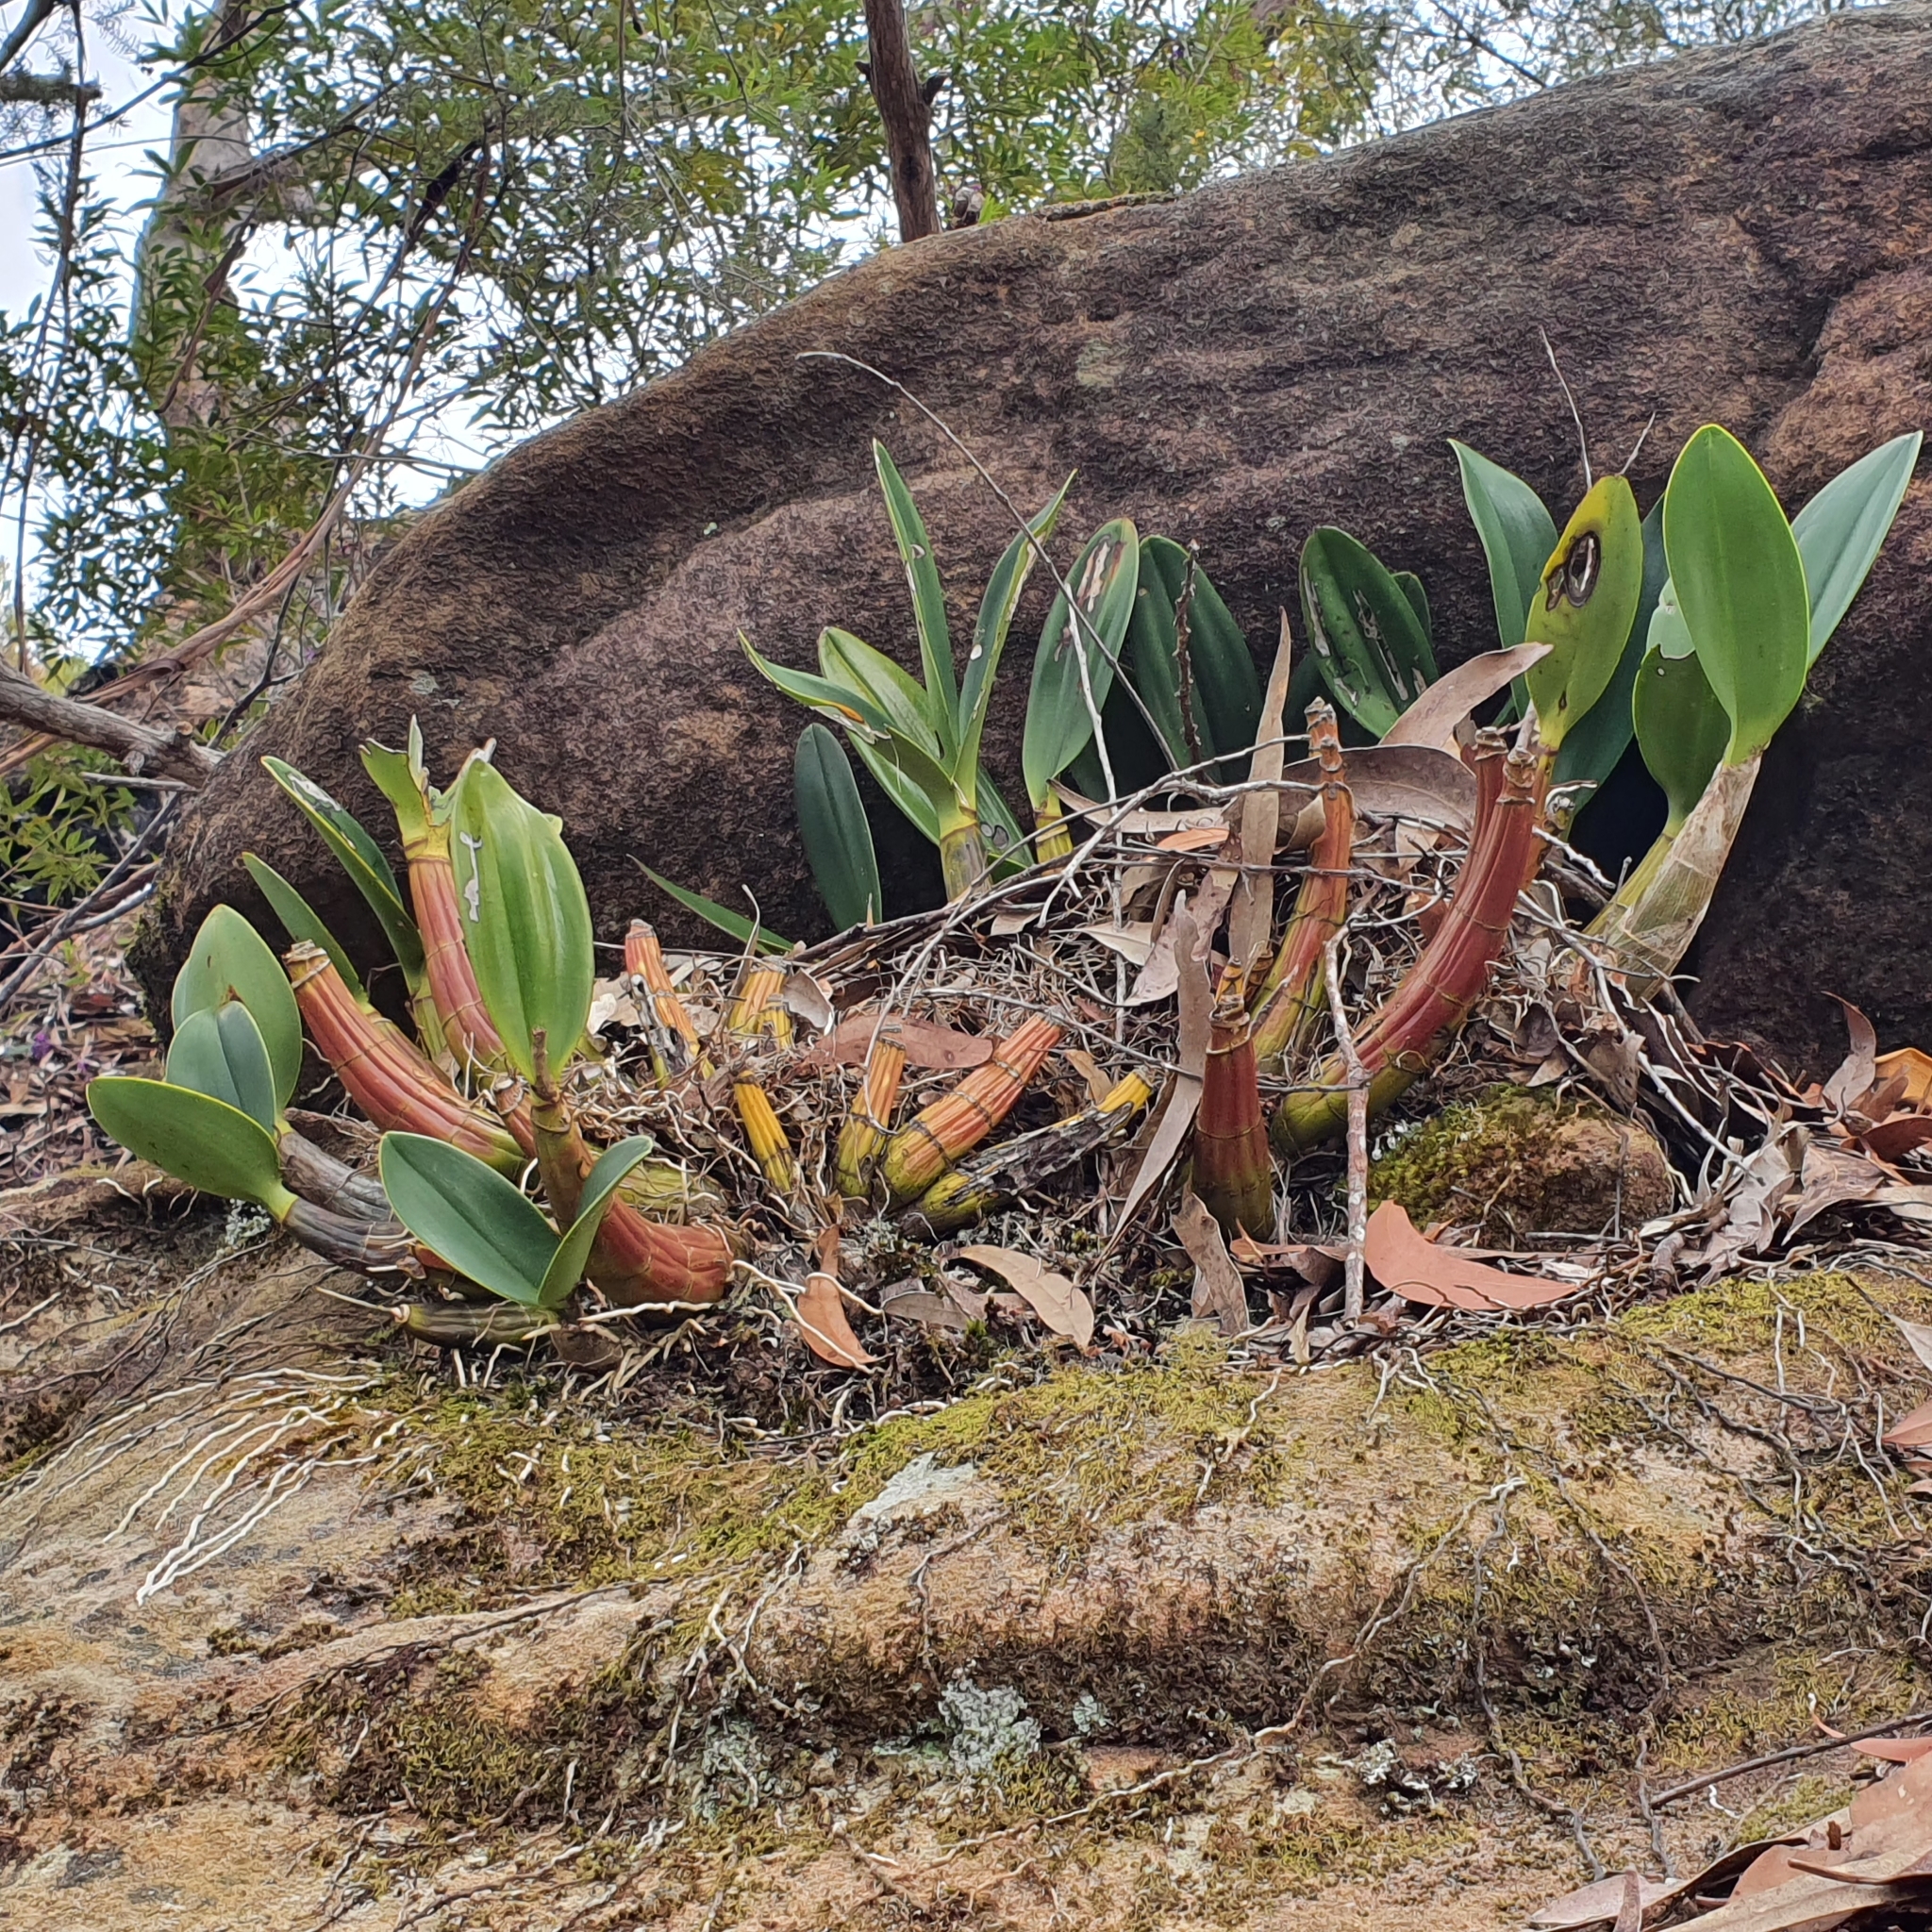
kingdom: Plantae
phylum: Tracheophyta
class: Liliopsida
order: Asparagales
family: Orchidaceae
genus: Dendrobium
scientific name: Dendrobium speciosum
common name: Rock-lily
